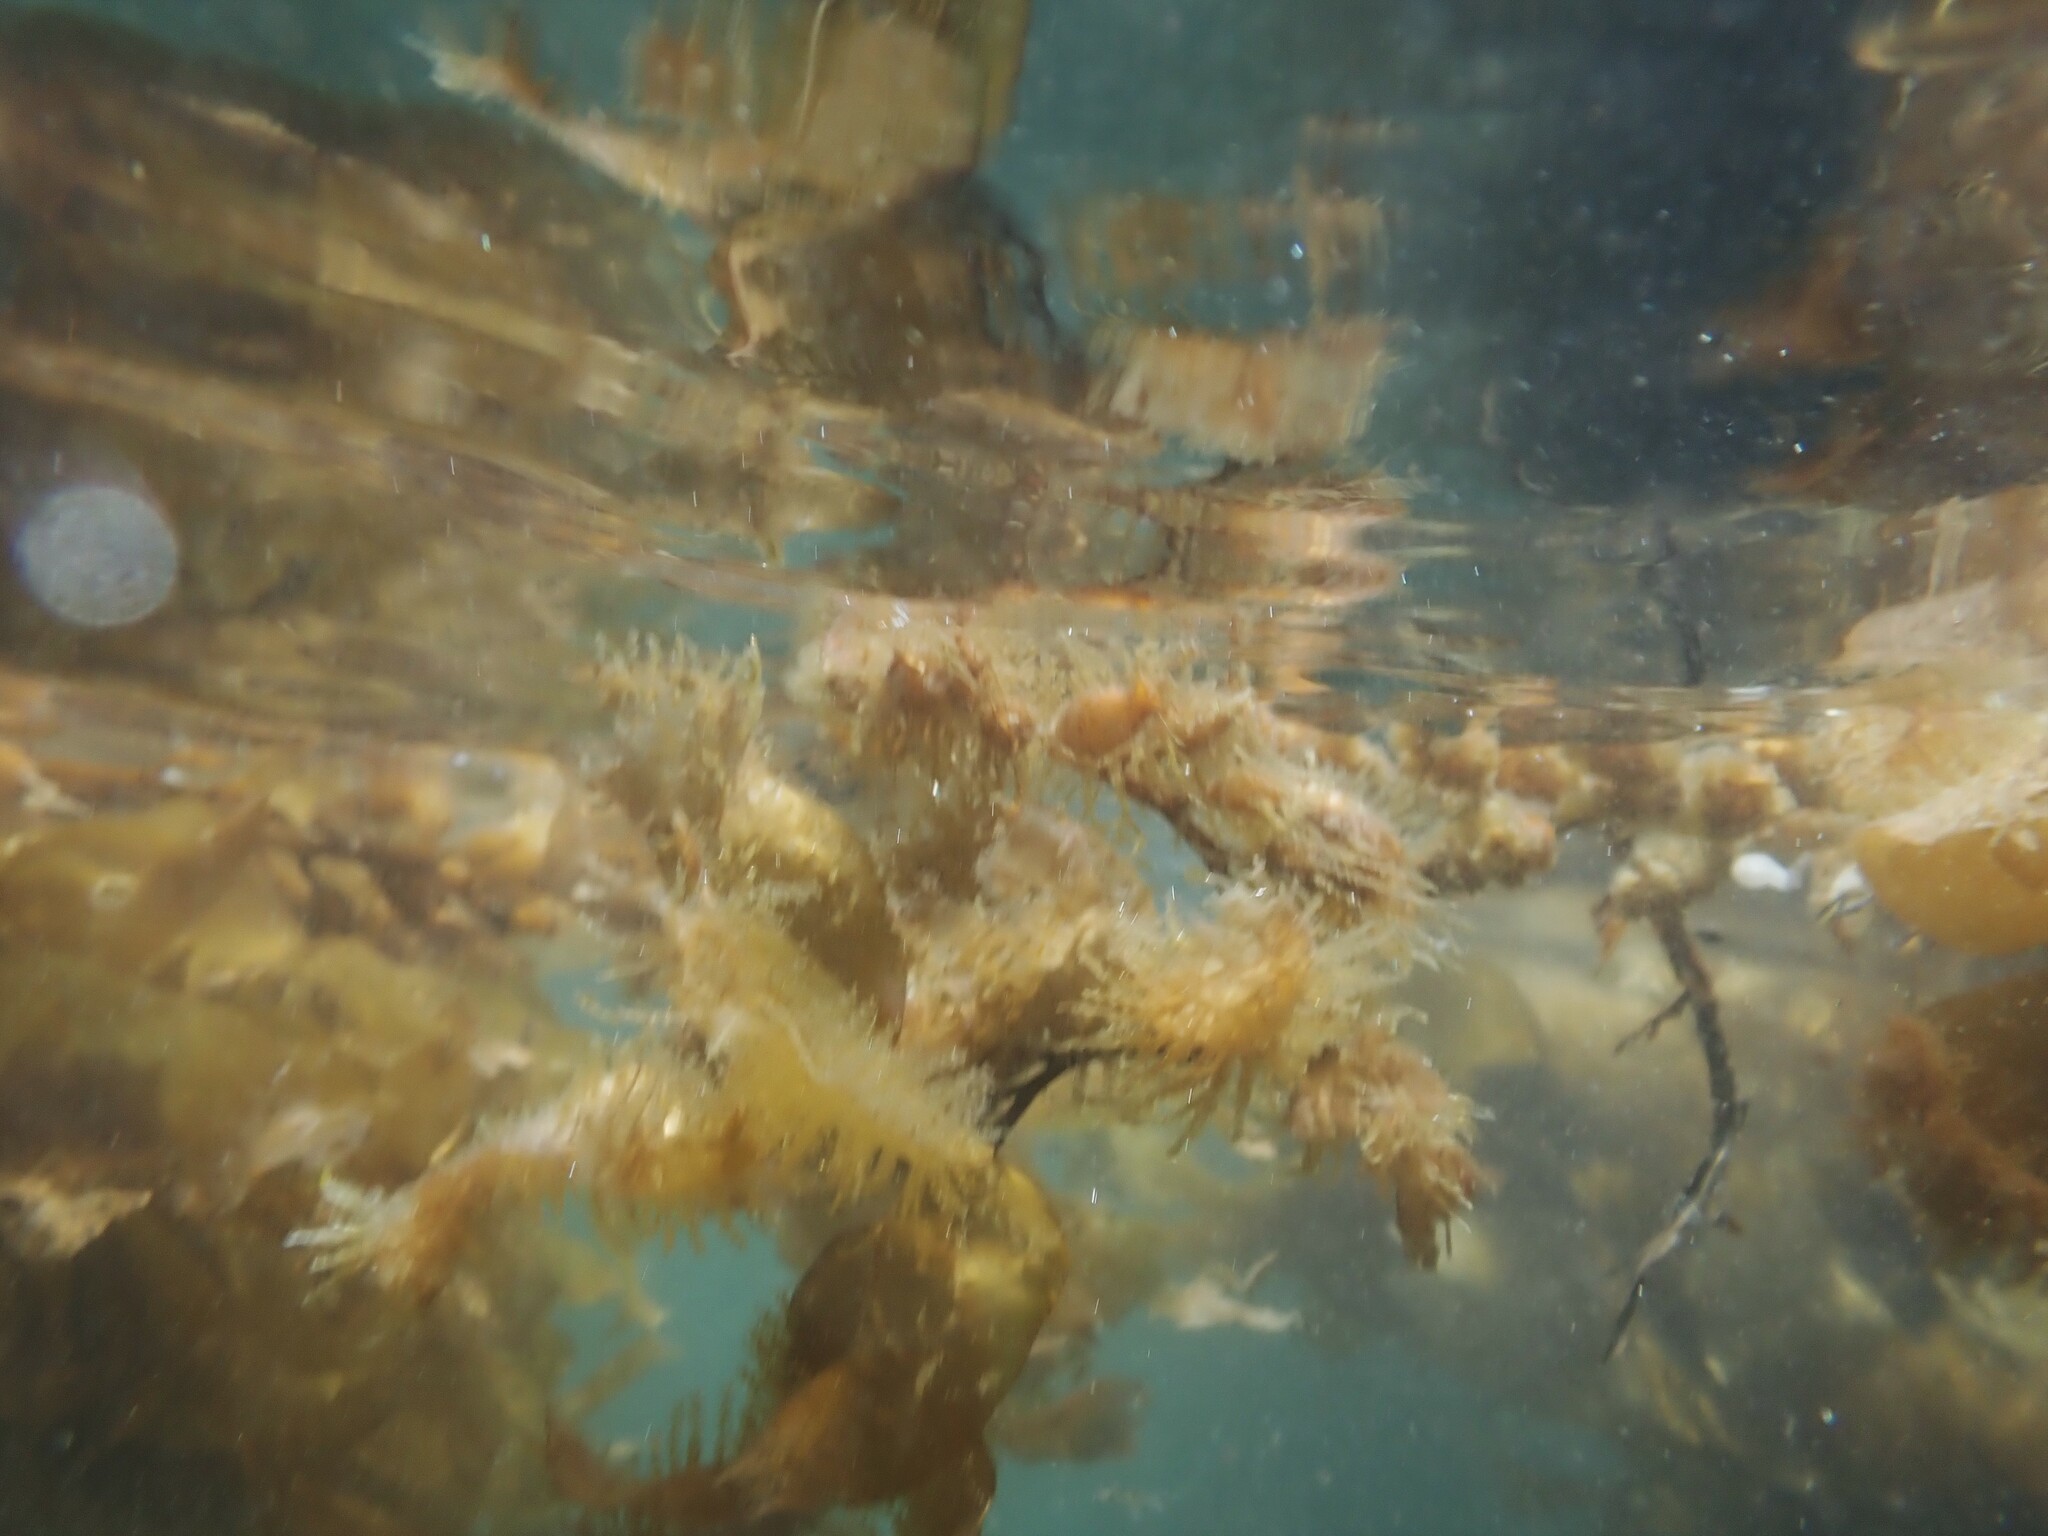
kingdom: Chromista
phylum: Ochrophyta
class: Phaeophyceae
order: Laminariales
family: Laminariaceae
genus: Macrocystis
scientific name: Macrocystis pyrifera
